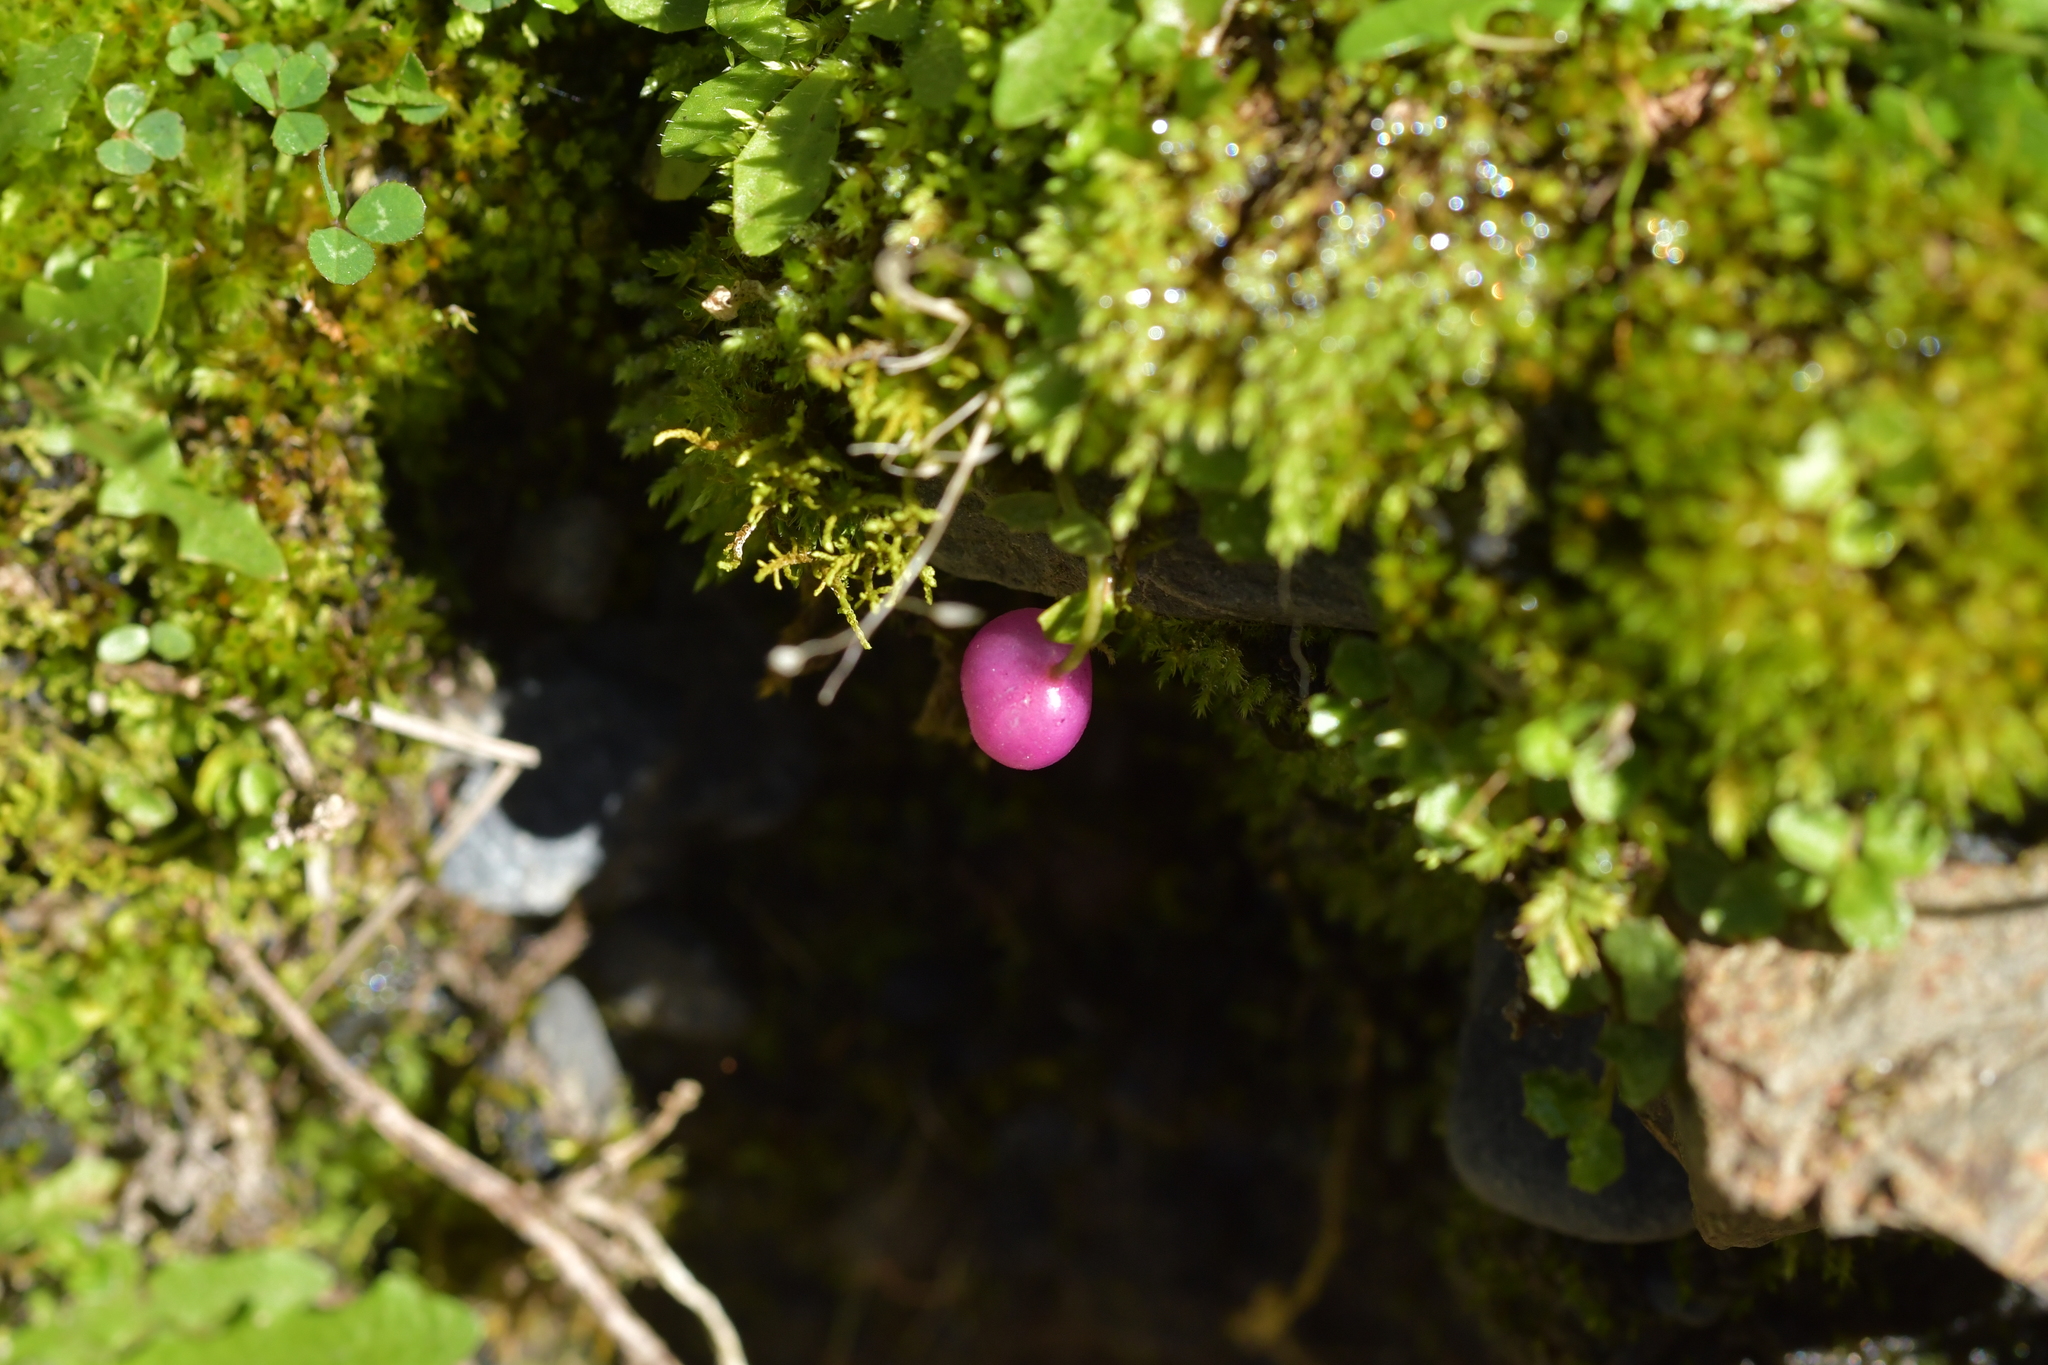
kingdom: Plantae
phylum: Tracheophyta
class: Magnoliopsida
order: Asterales
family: Campanulaceae
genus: Lobelia
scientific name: Lobelia angulata
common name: Lawn lobelia
